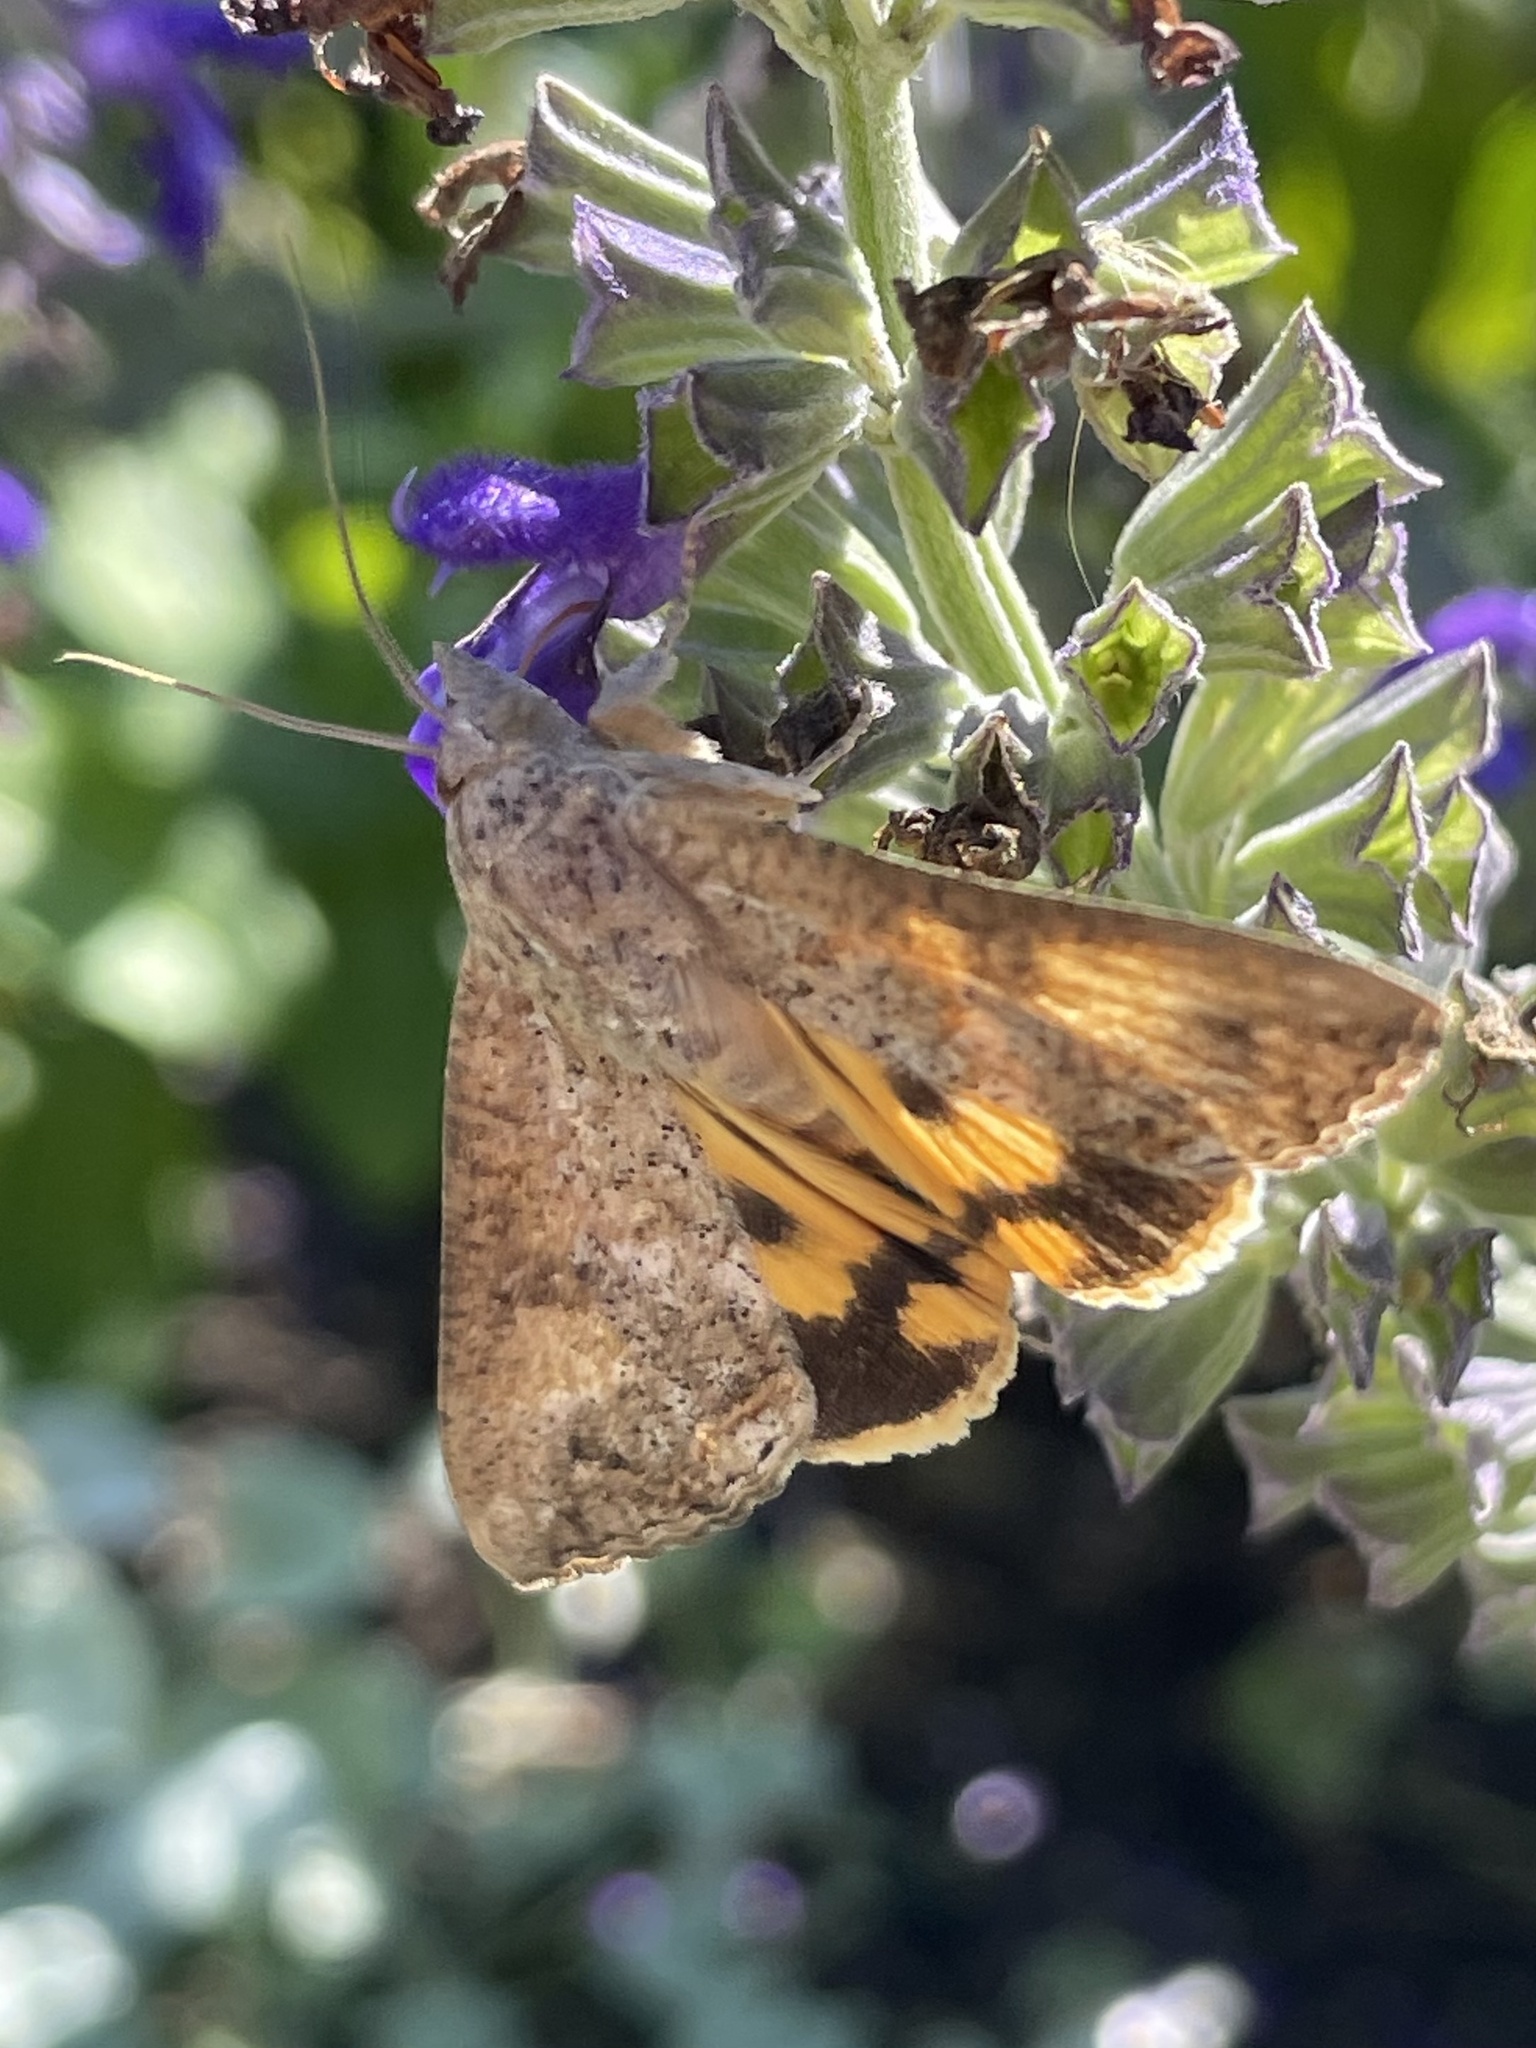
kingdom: Animalia
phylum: Arthropoda
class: Insecta
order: Lepidoptera
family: Erebidae
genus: Hypocala
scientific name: Hypocala andremona
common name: Hypocala moth
